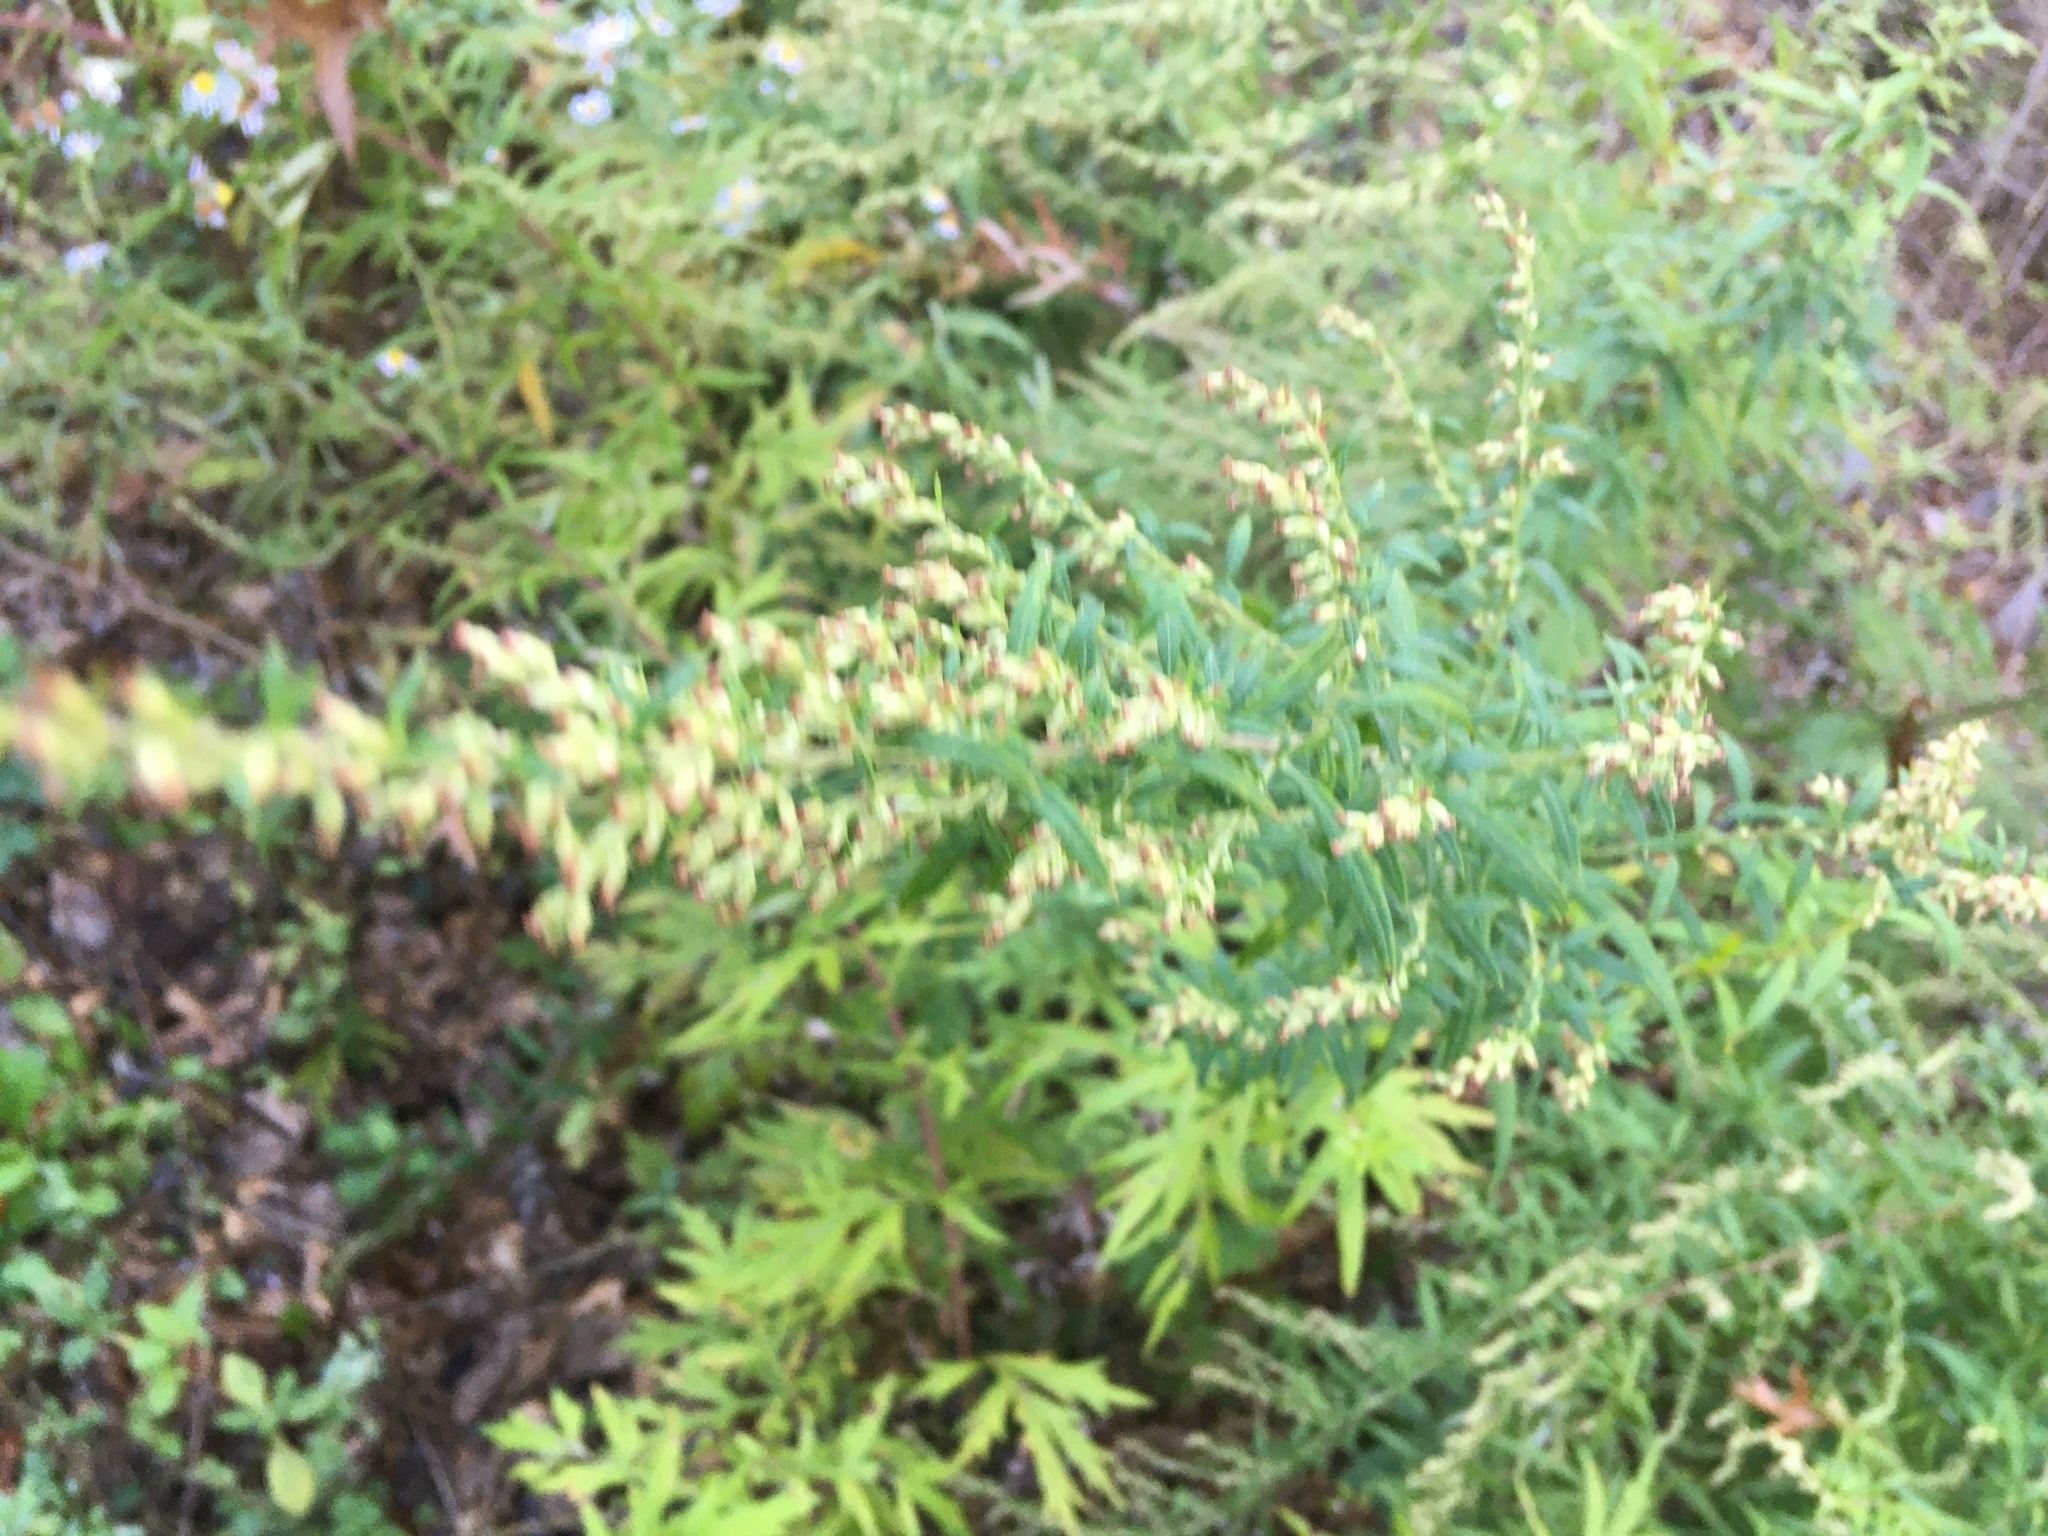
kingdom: Plantae
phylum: Tracheophyta
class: Magnoliopsida
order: Asterales
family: Asteraceae
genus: Artemisia
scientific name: Artemisia vulgaris
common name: Mugwort
